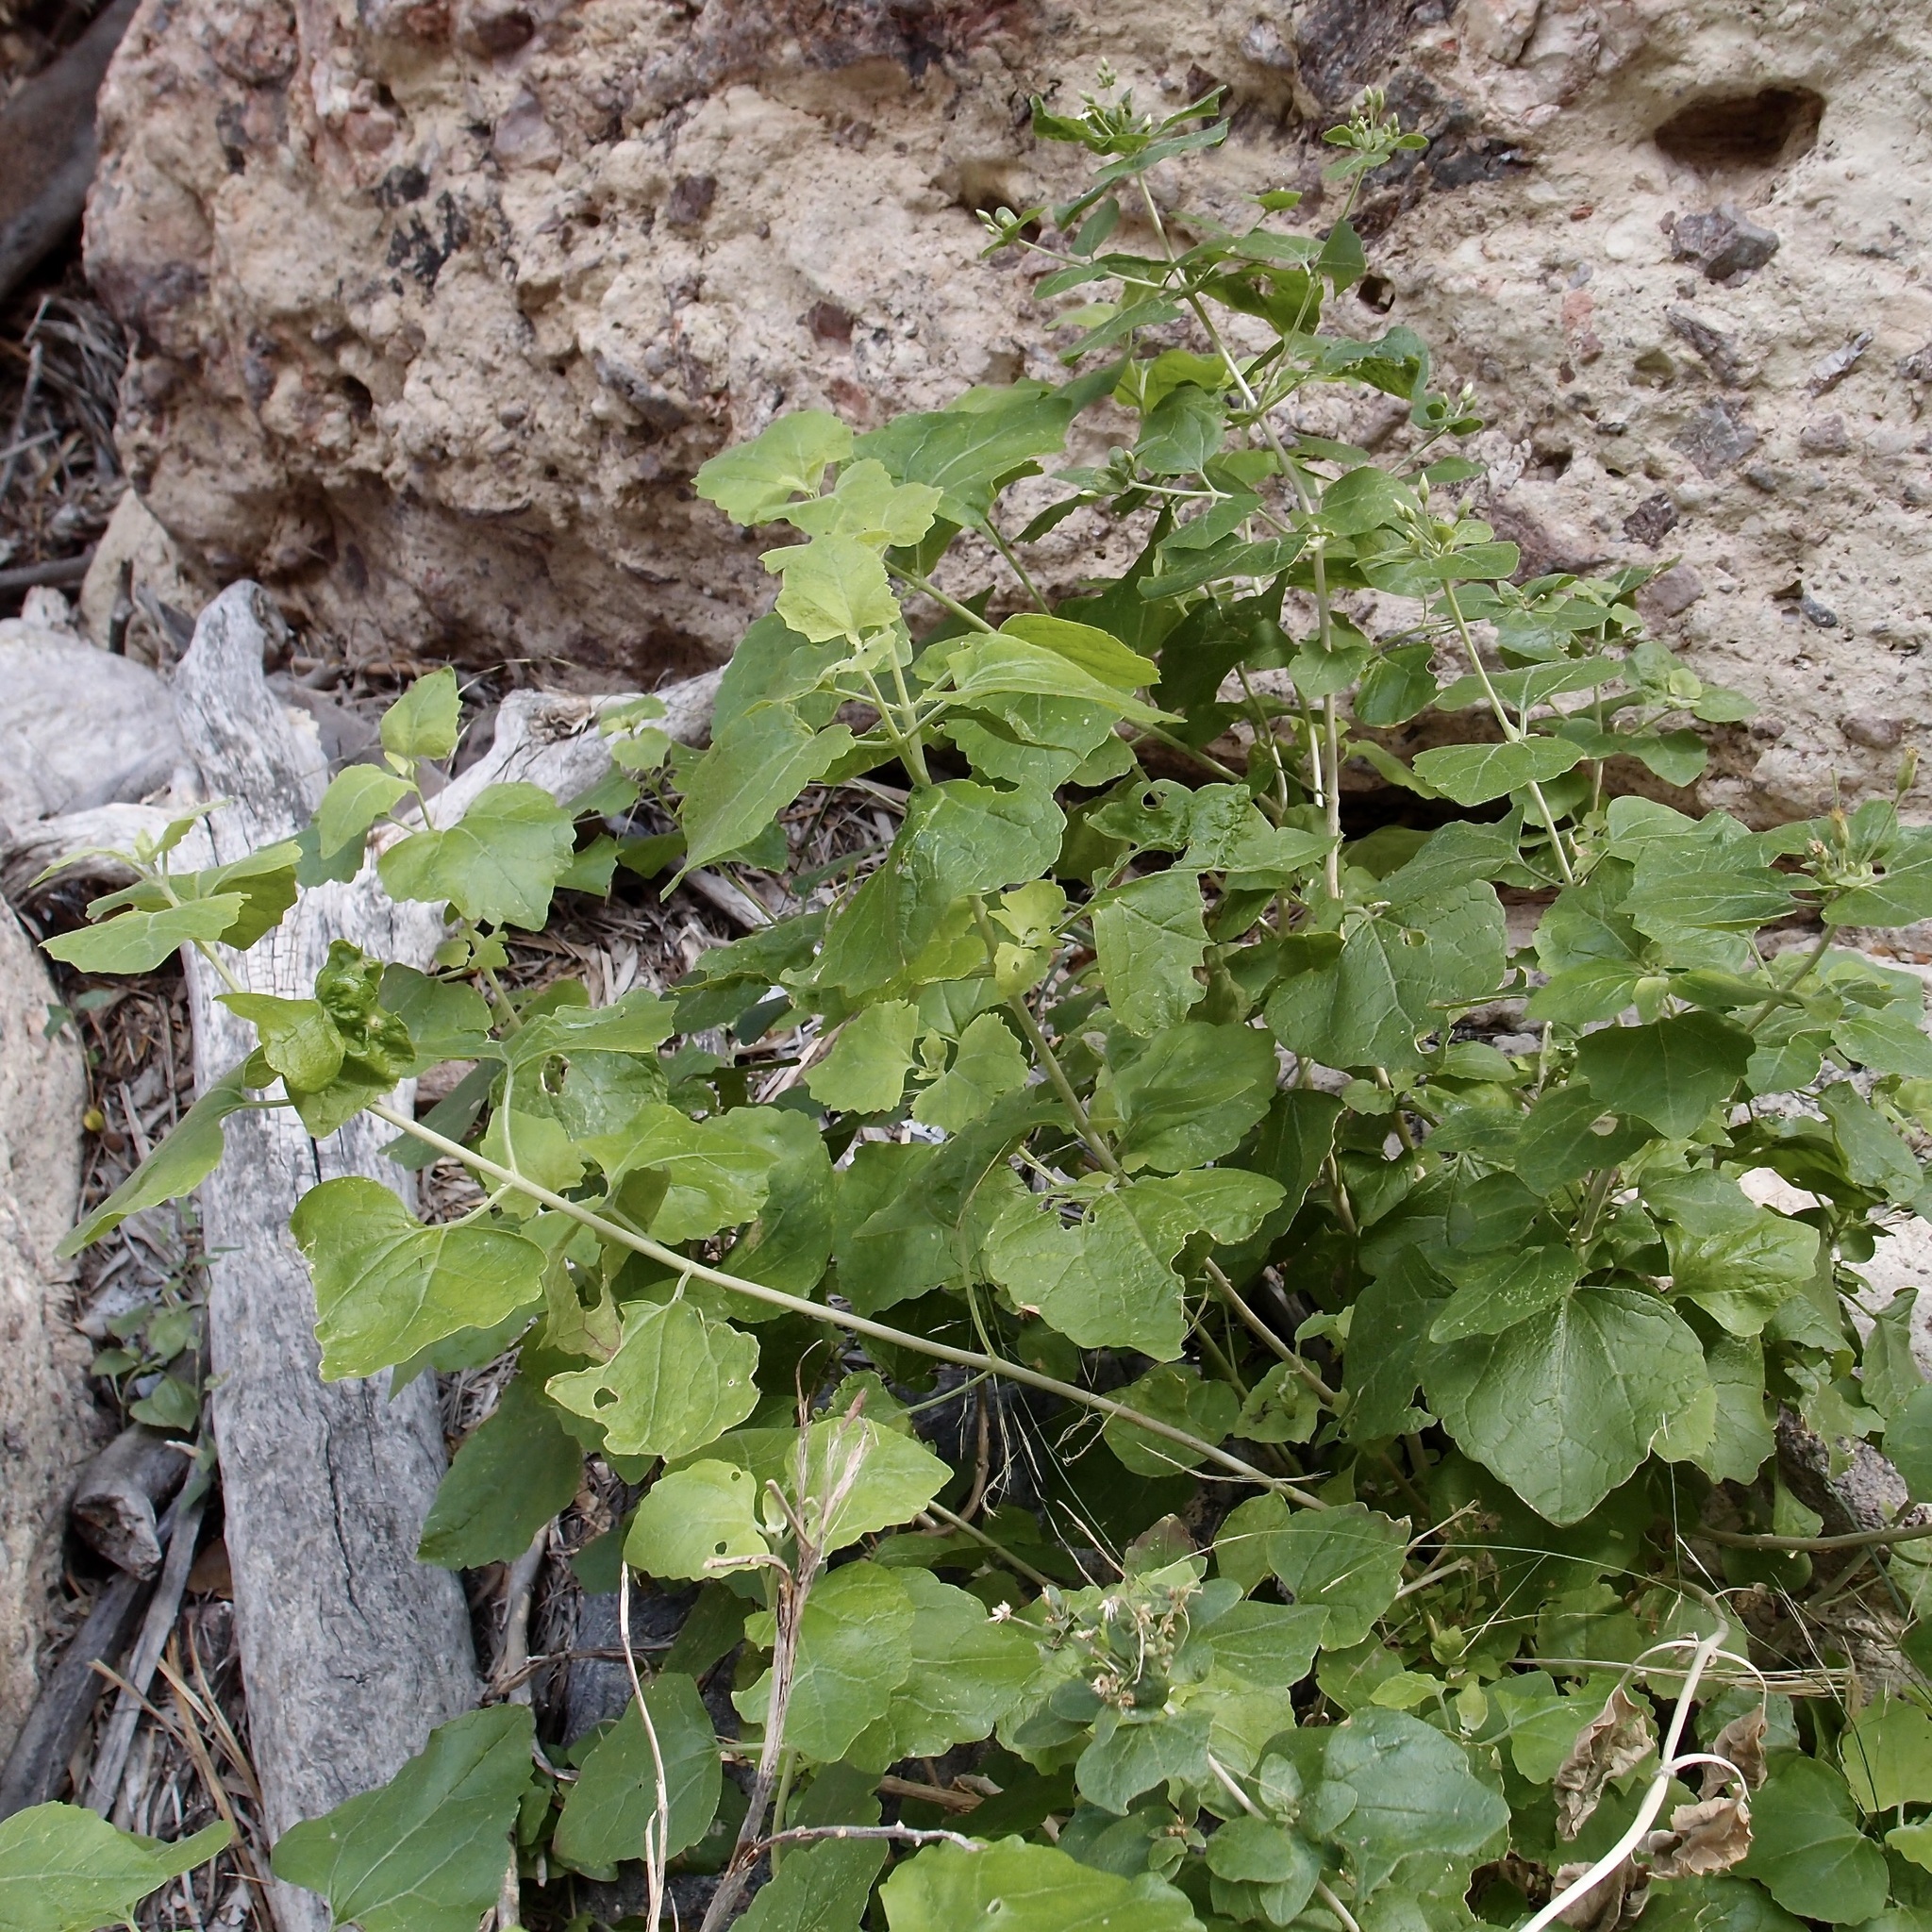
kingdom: Plantae
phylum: Tracheophyta
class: Magnoliopsida
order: Asterales
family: Asteraceae
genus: Brickellia
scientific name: Brickellia rhomboidea
